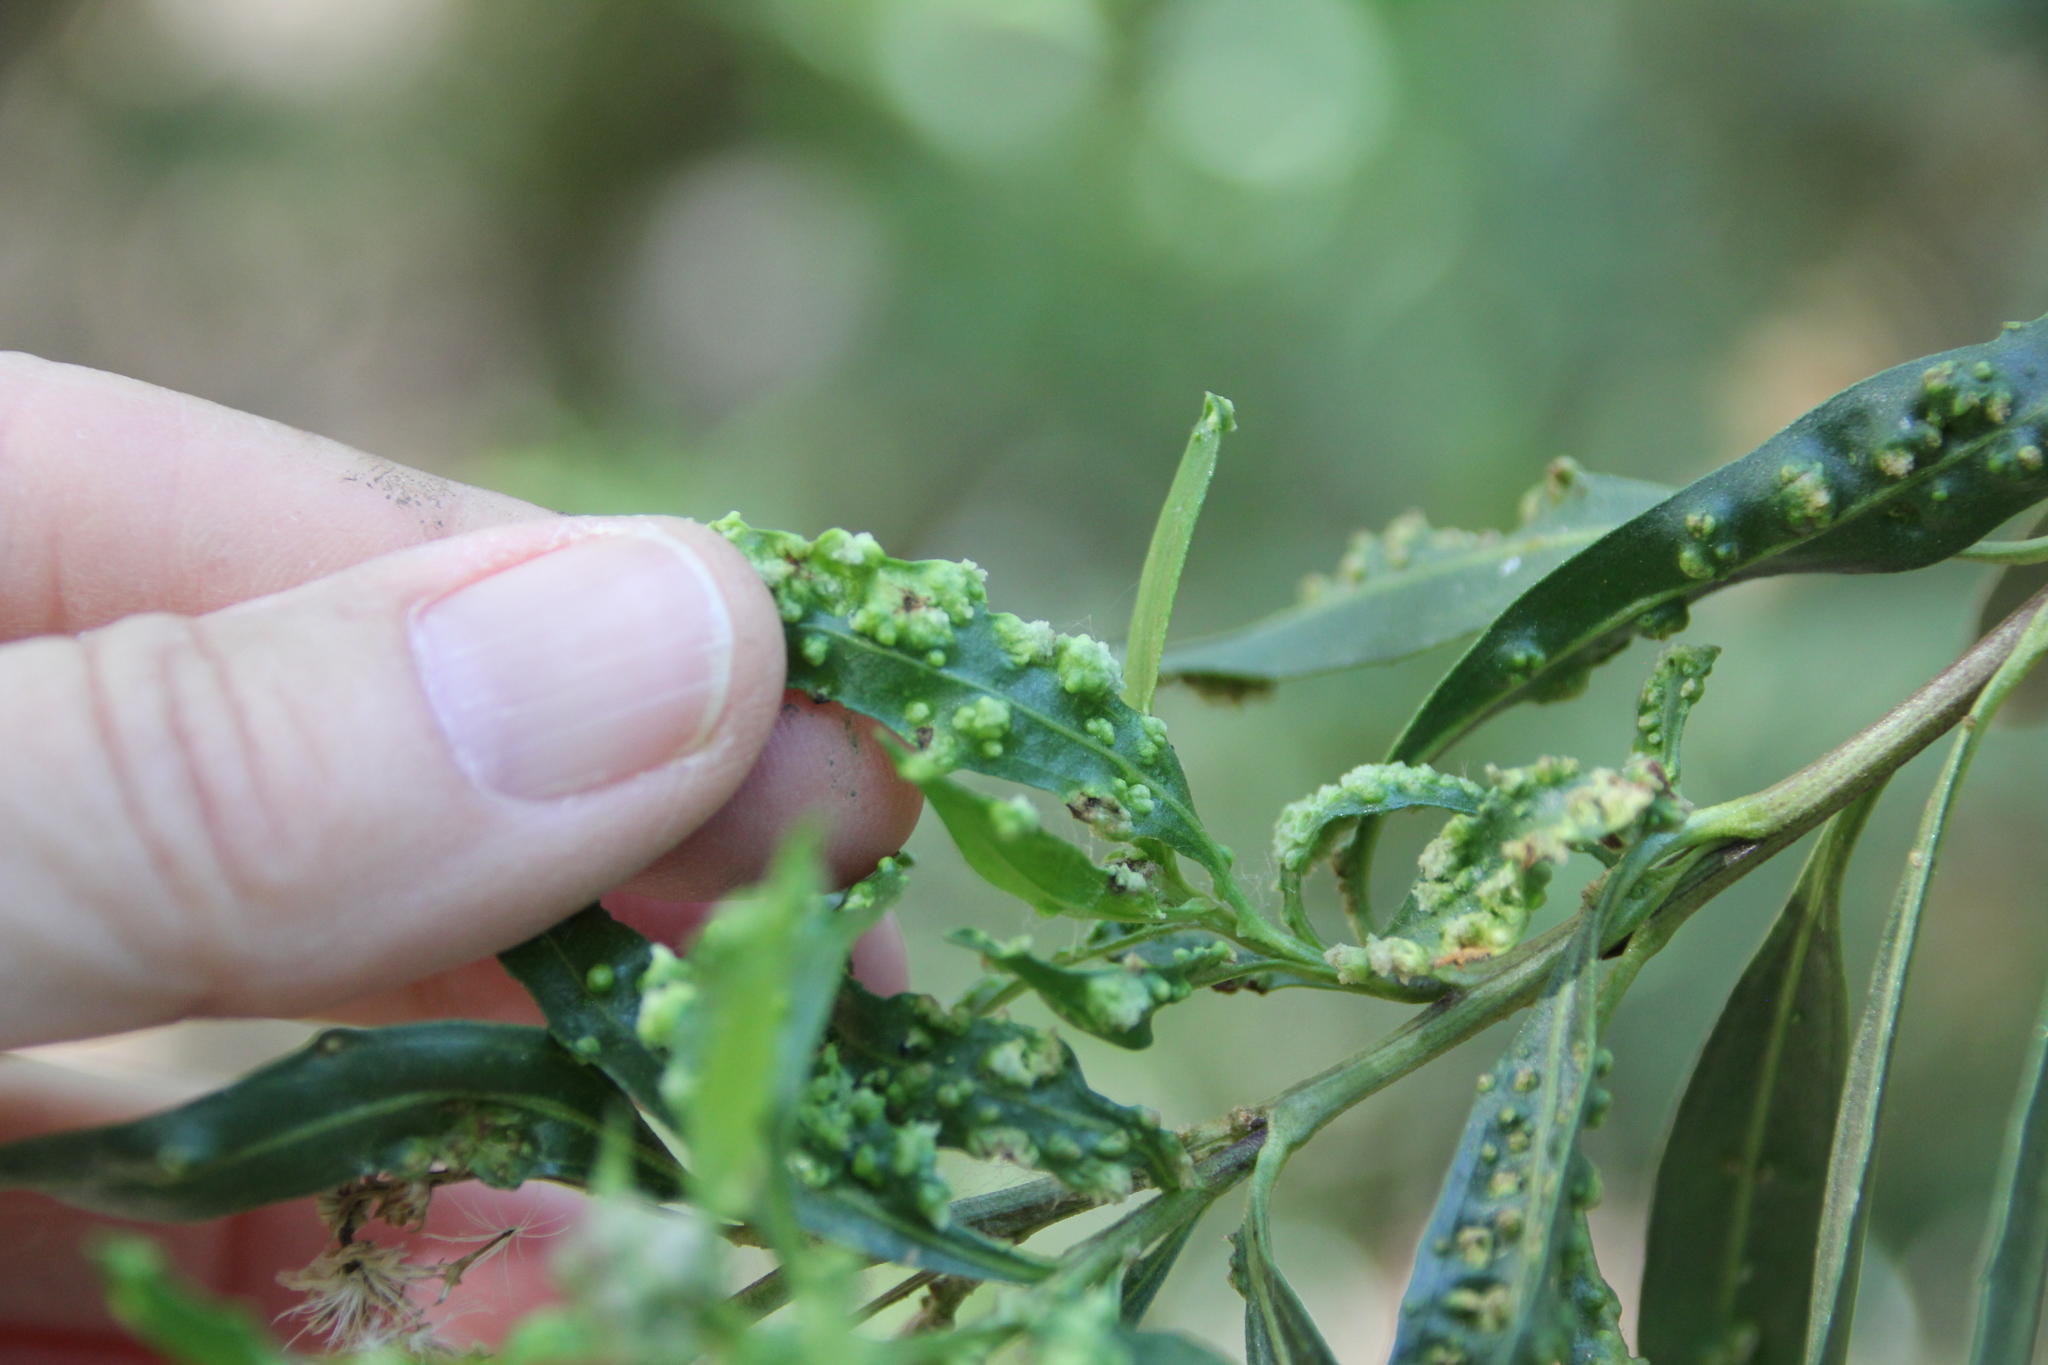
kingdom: Animalia
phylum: Arthropoda
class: Arachnida
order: Trombidiformes
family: Eriophyidae
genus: Aceria
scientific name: Aceria
